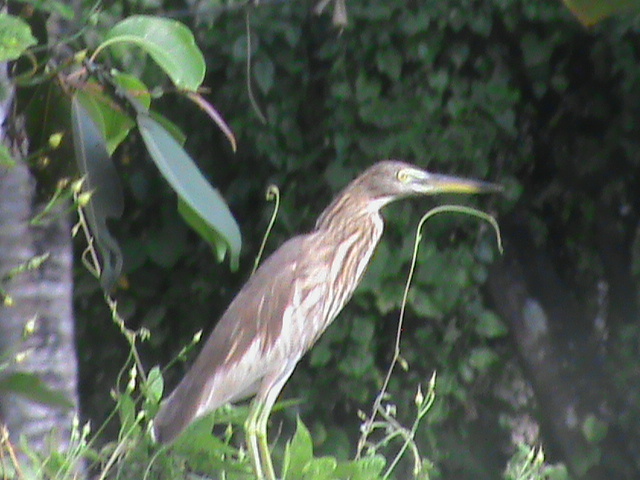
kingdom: Animalia
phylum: Chordata
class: Aves
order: Pelecaniformes
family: Ardeidae
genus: Ardeola
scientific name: Ardeola grayii
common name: Indian pond heron
